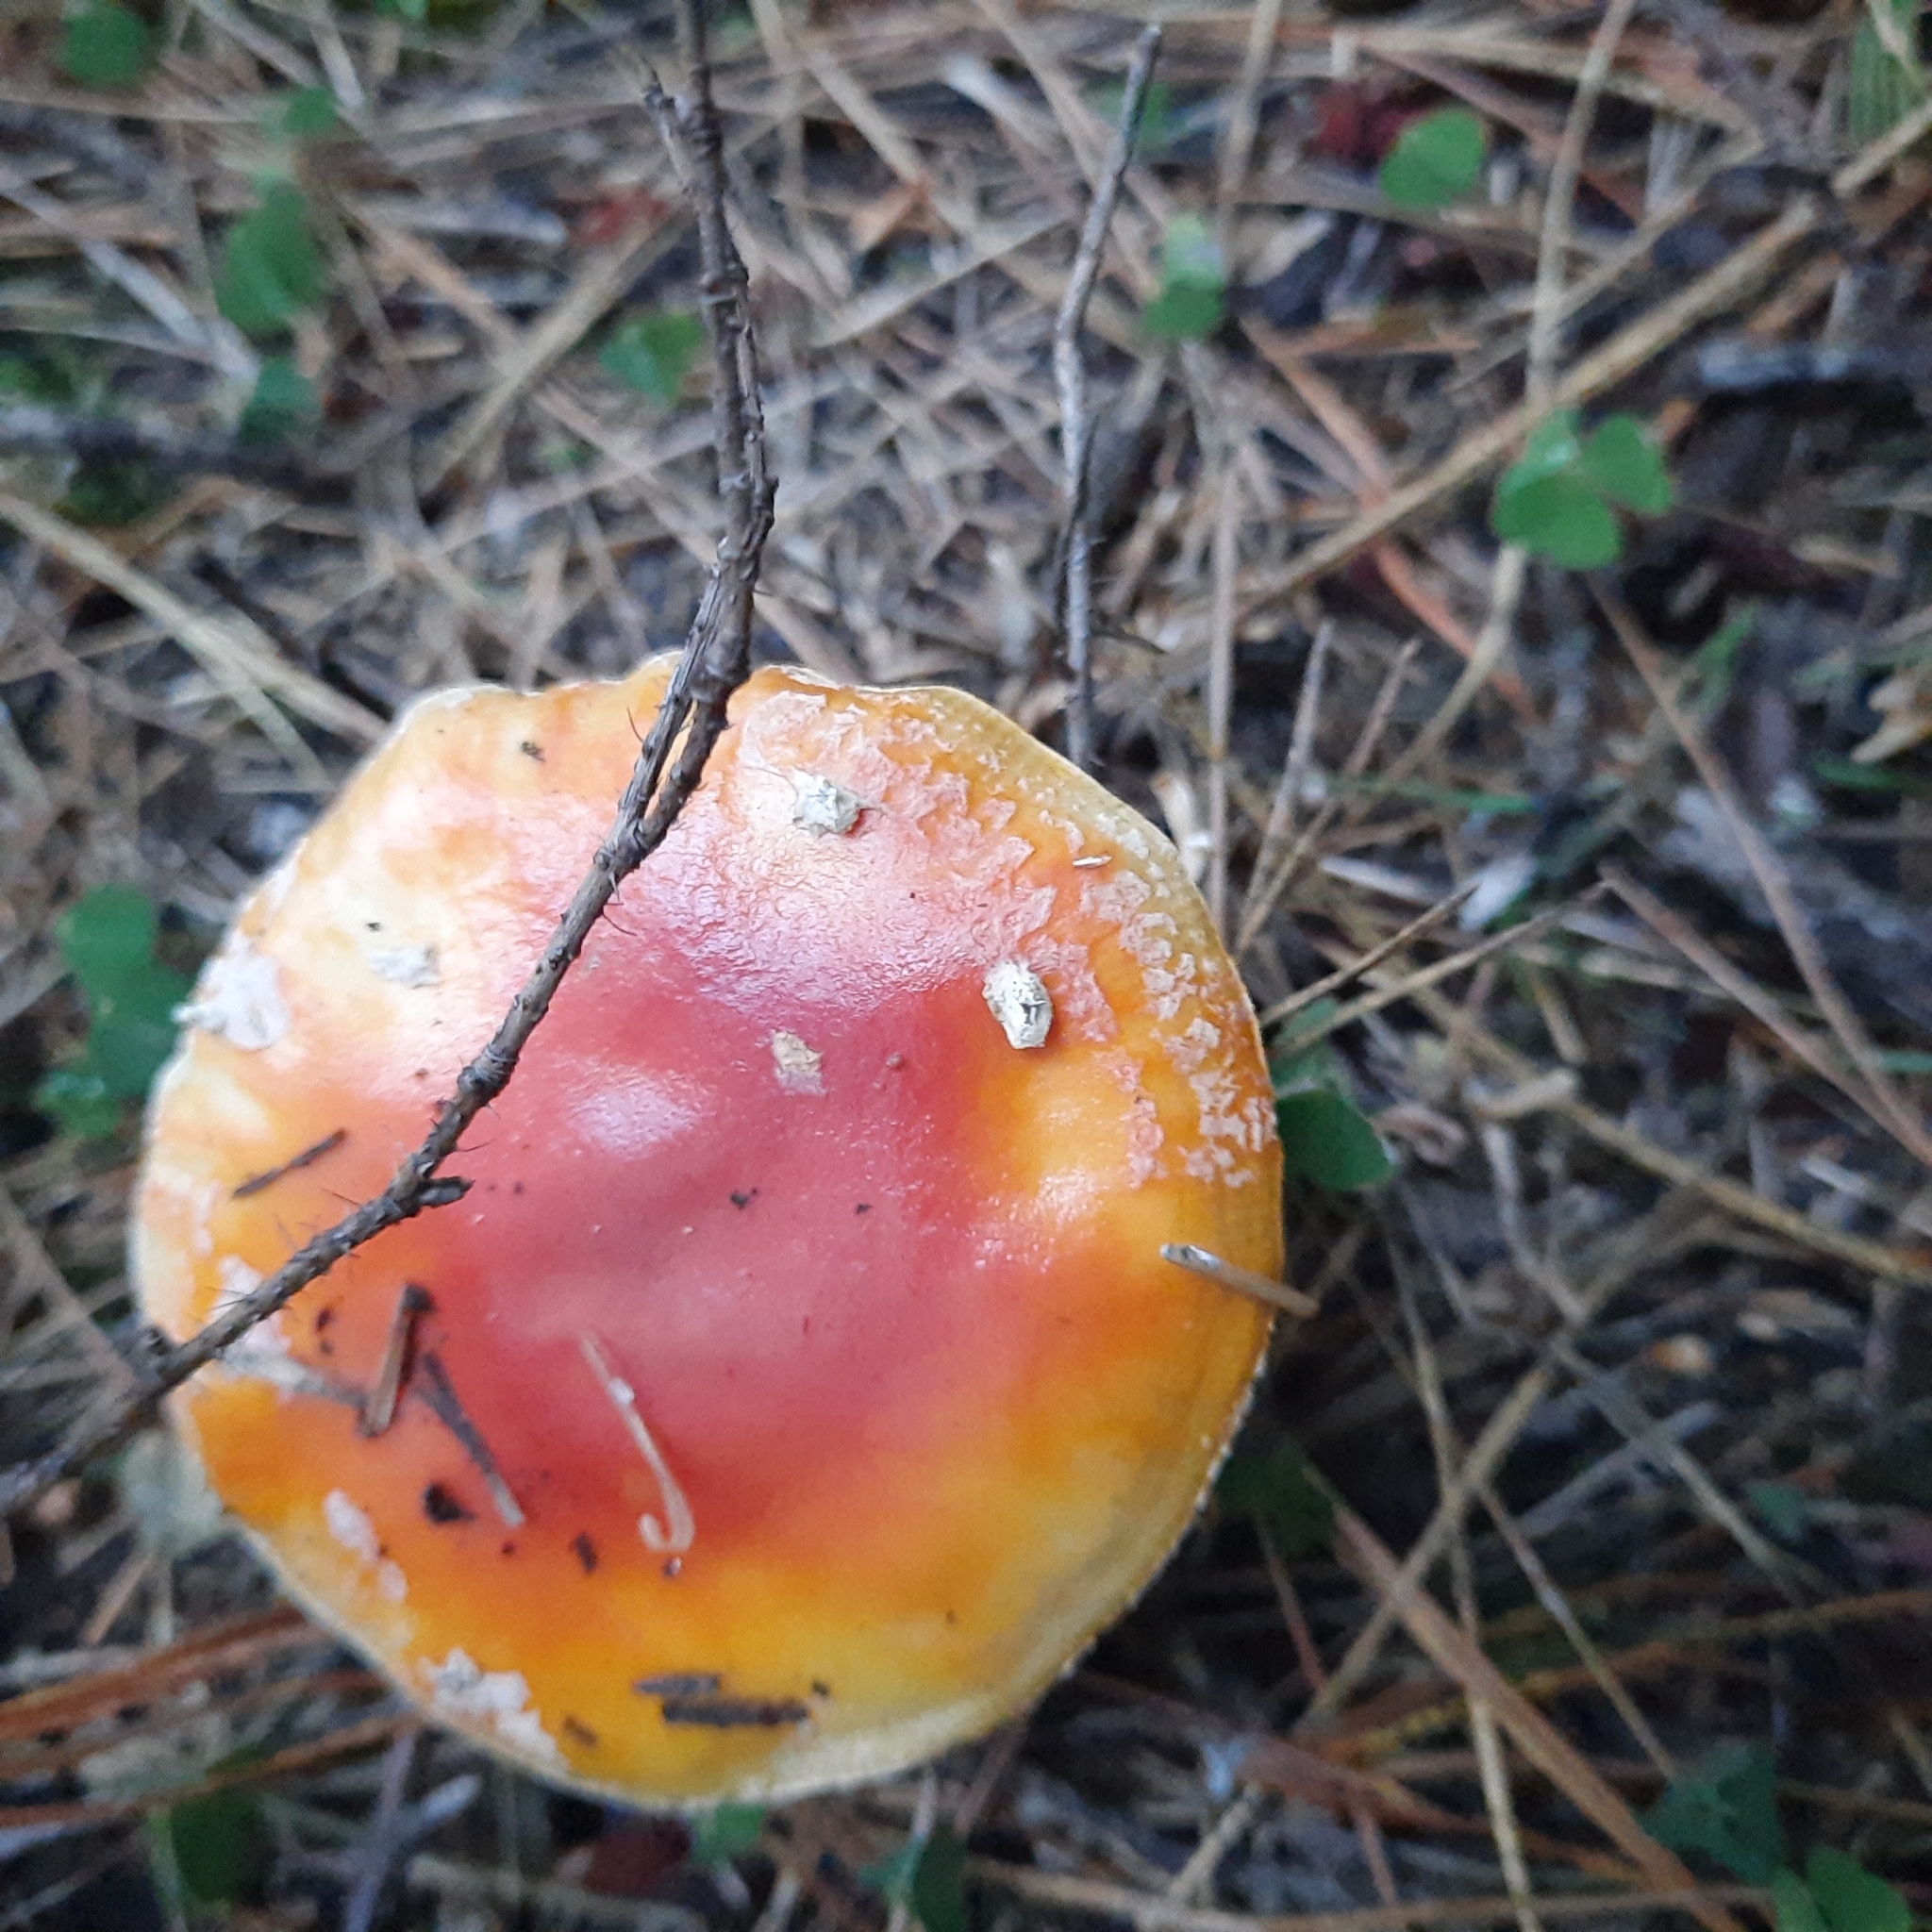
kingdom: Fungi
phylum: Basidiomycota
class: Agaricomycetes
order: Agaricales
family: Amanitaceae
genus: Amanita
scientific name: Amanita muscaria
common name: Fly agaric
